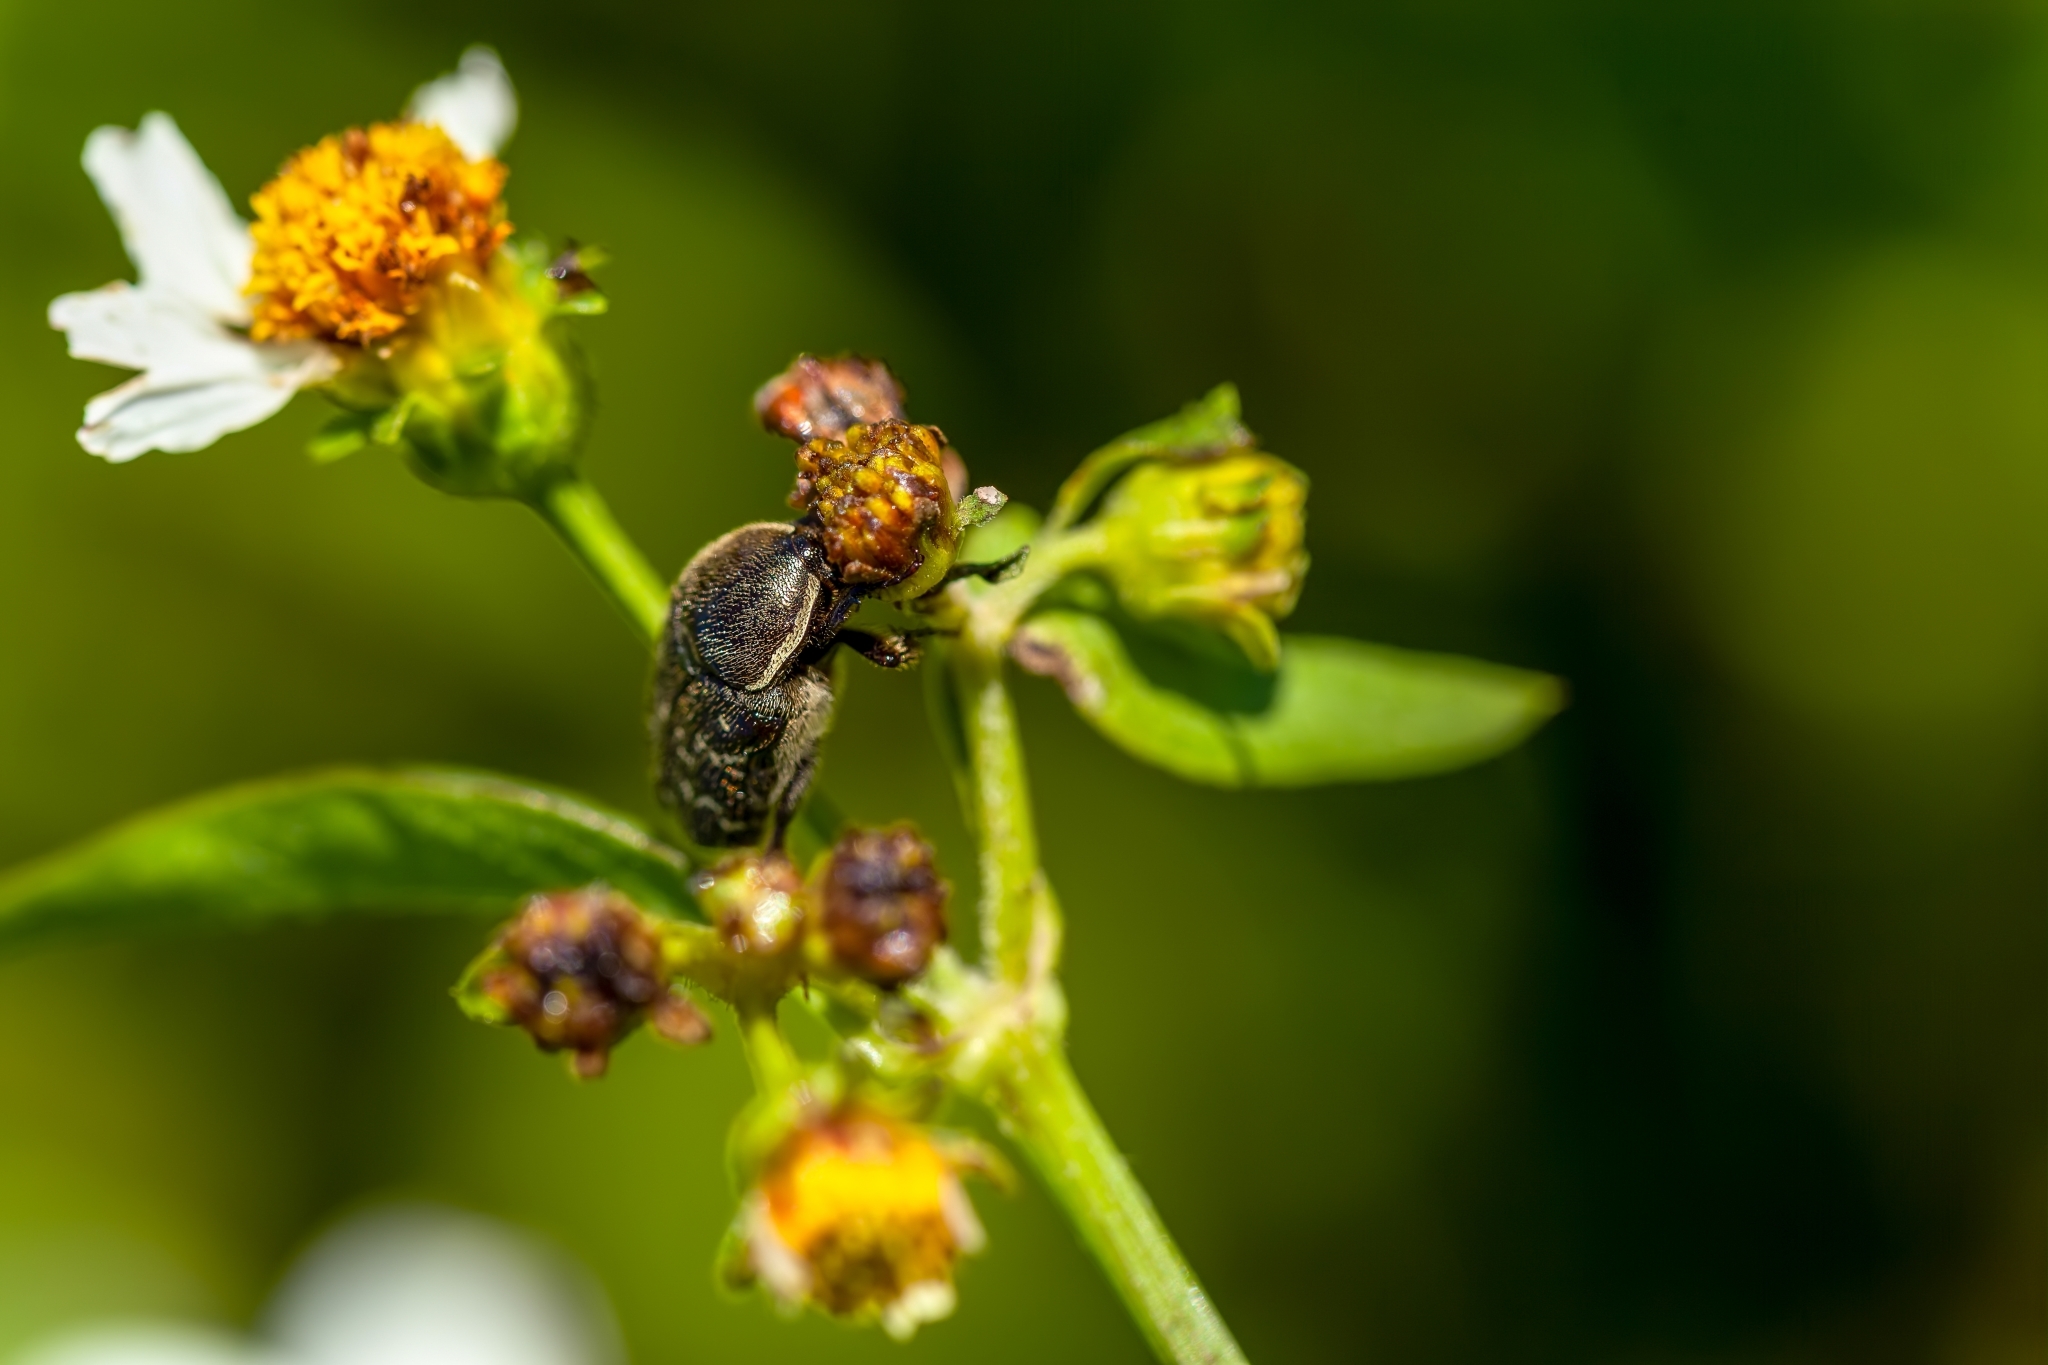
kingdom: Animalia
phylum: Arthropoda
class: Insecta
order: Coleoptera
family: Scarabaeidae
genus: Euphoria
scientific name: Euphoria sepulcralis
